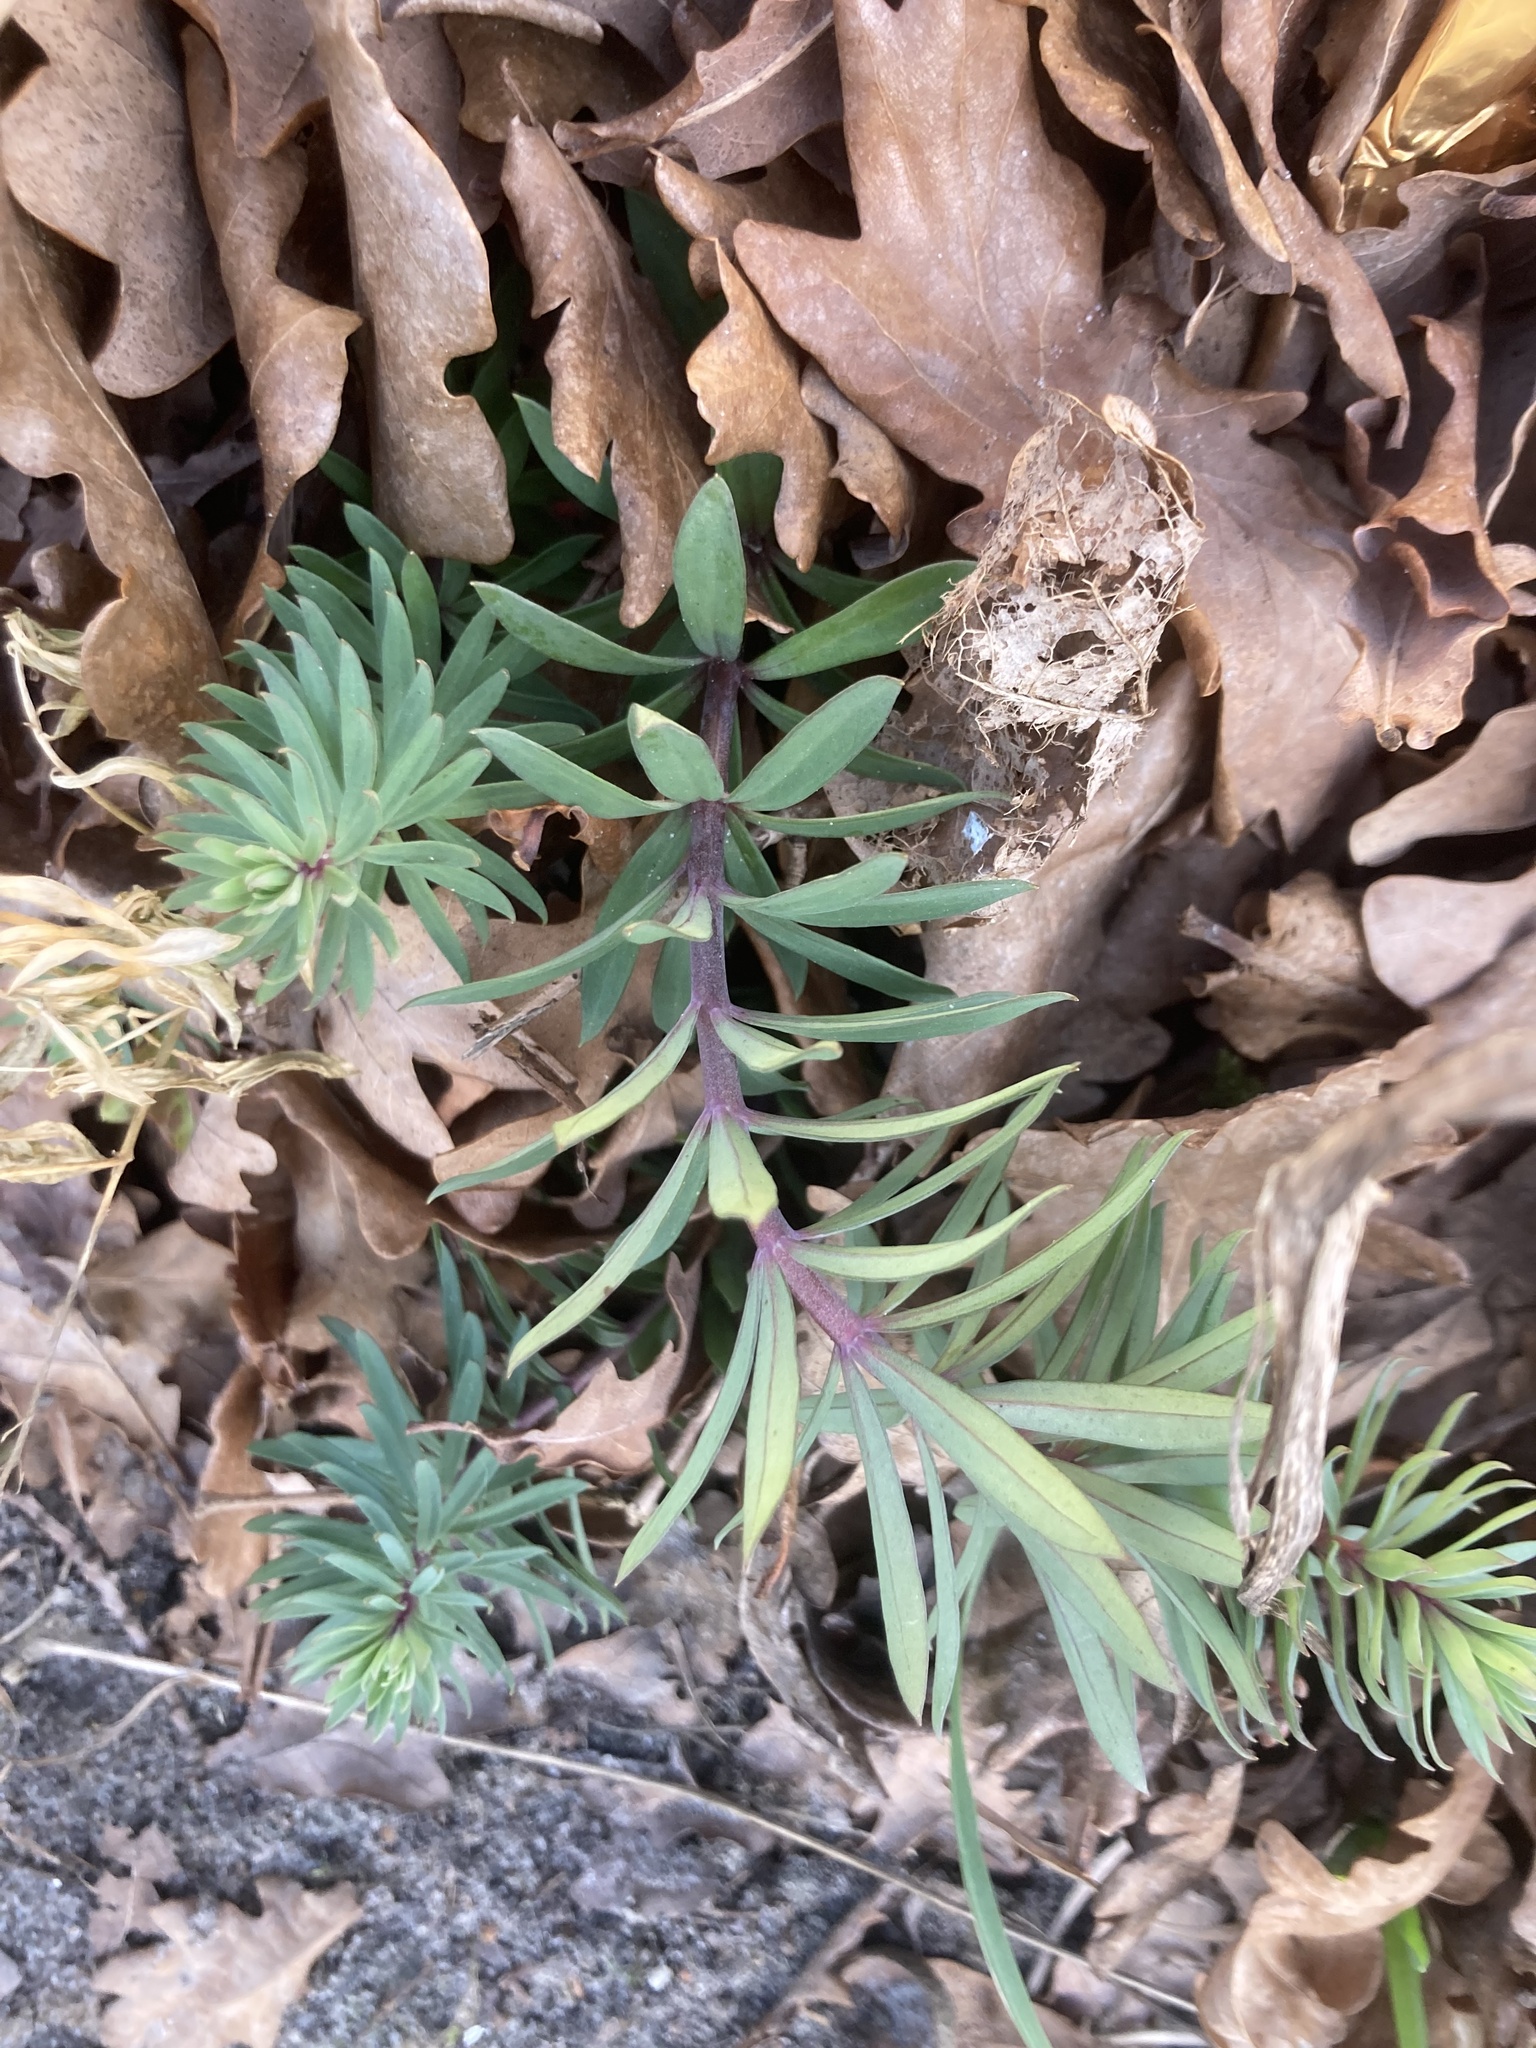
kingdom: Plantae
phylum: Tracheophyta
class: Magnoliopsida
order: Lamiales
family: Plantaginaceae
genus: Linaria
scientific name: Linaria purpurea
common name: Purple toadflax
